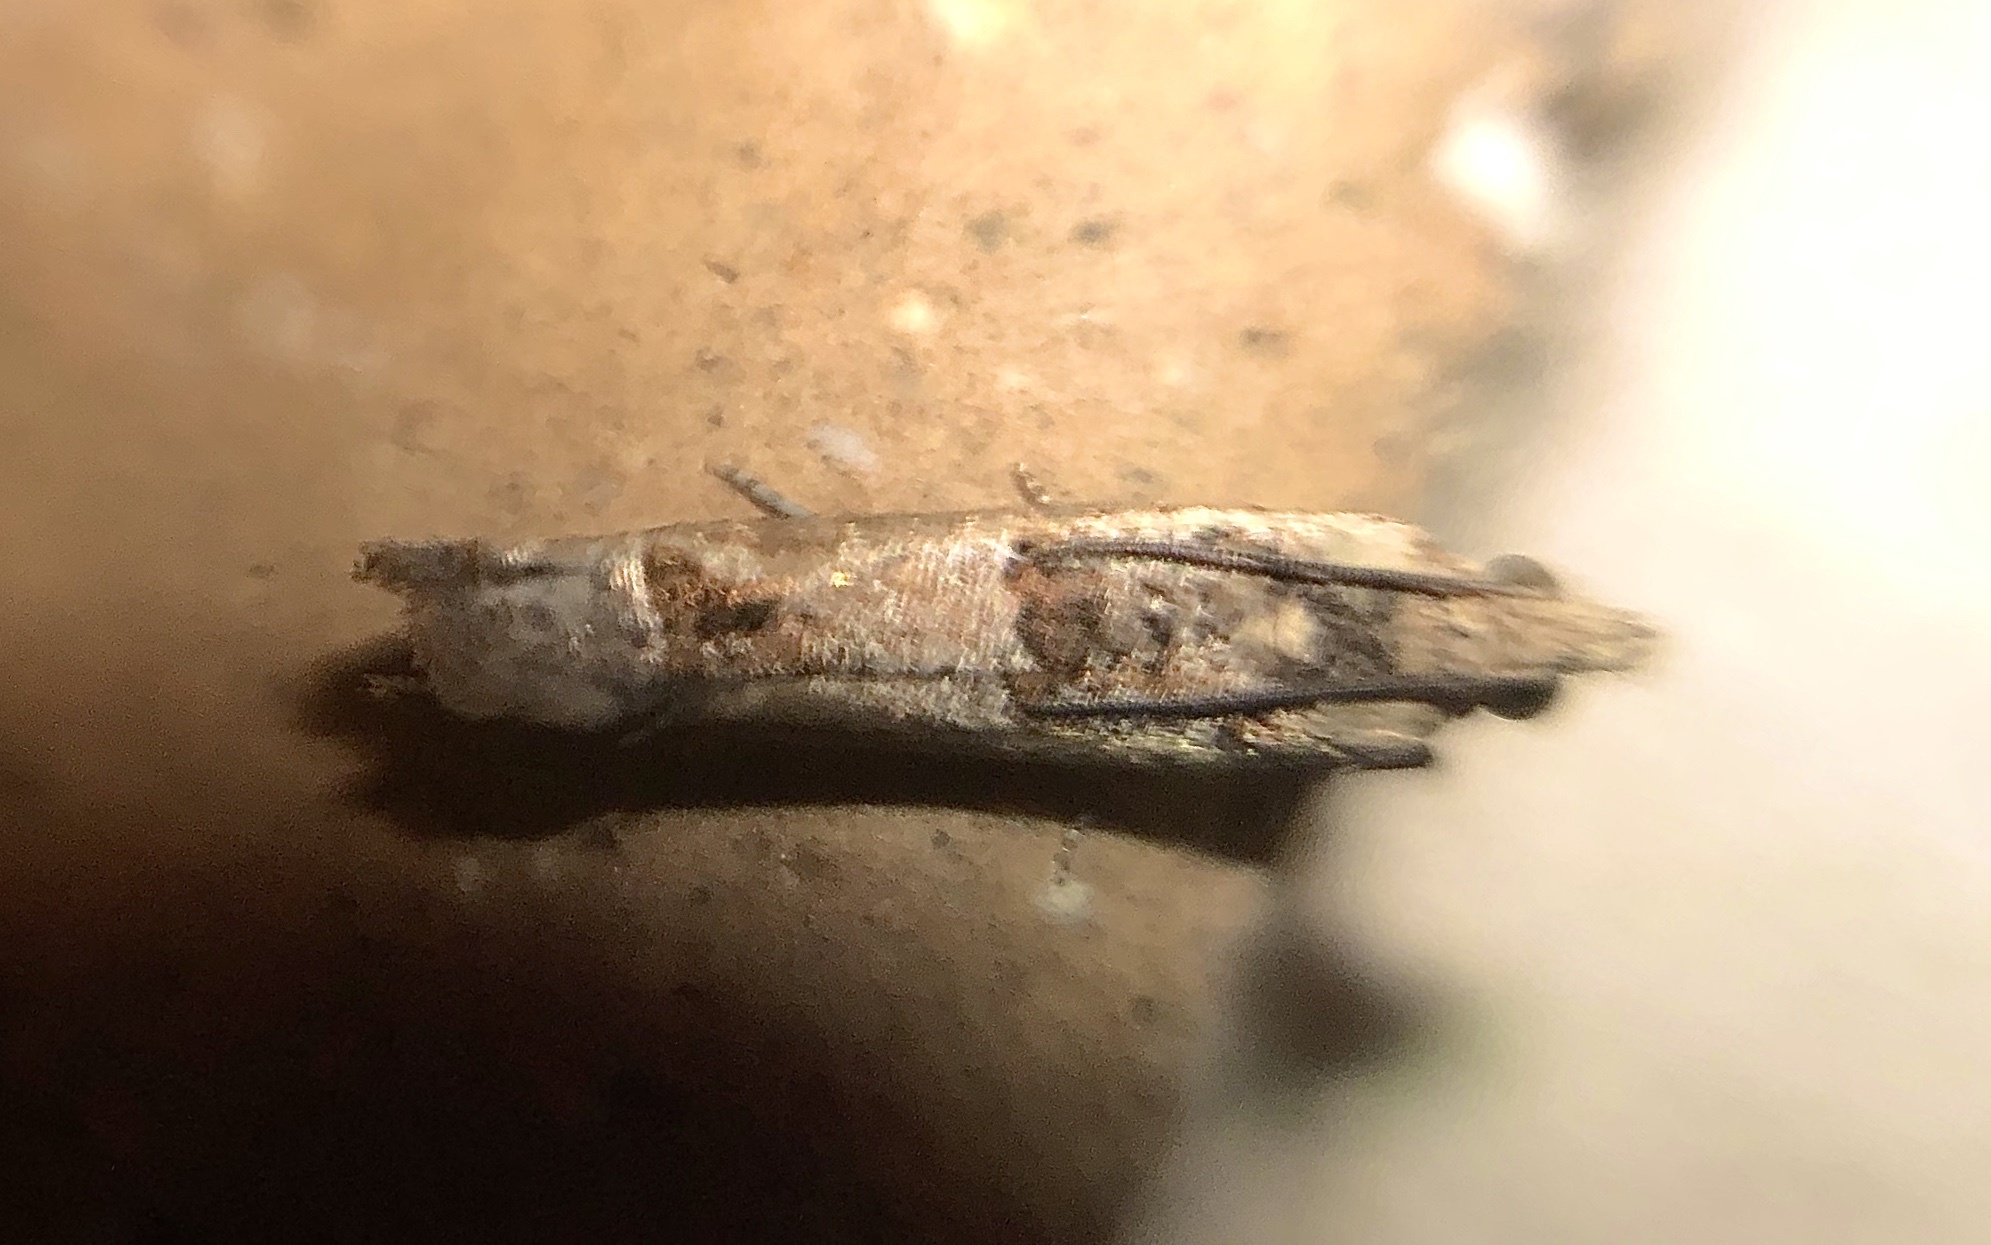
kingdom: Animalia
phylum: Arthropoda
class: Insecta
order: Lepidoptera
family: Tortricidae
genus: Crocidosema
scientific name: Crocidosema plebejana
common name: Southern bell
